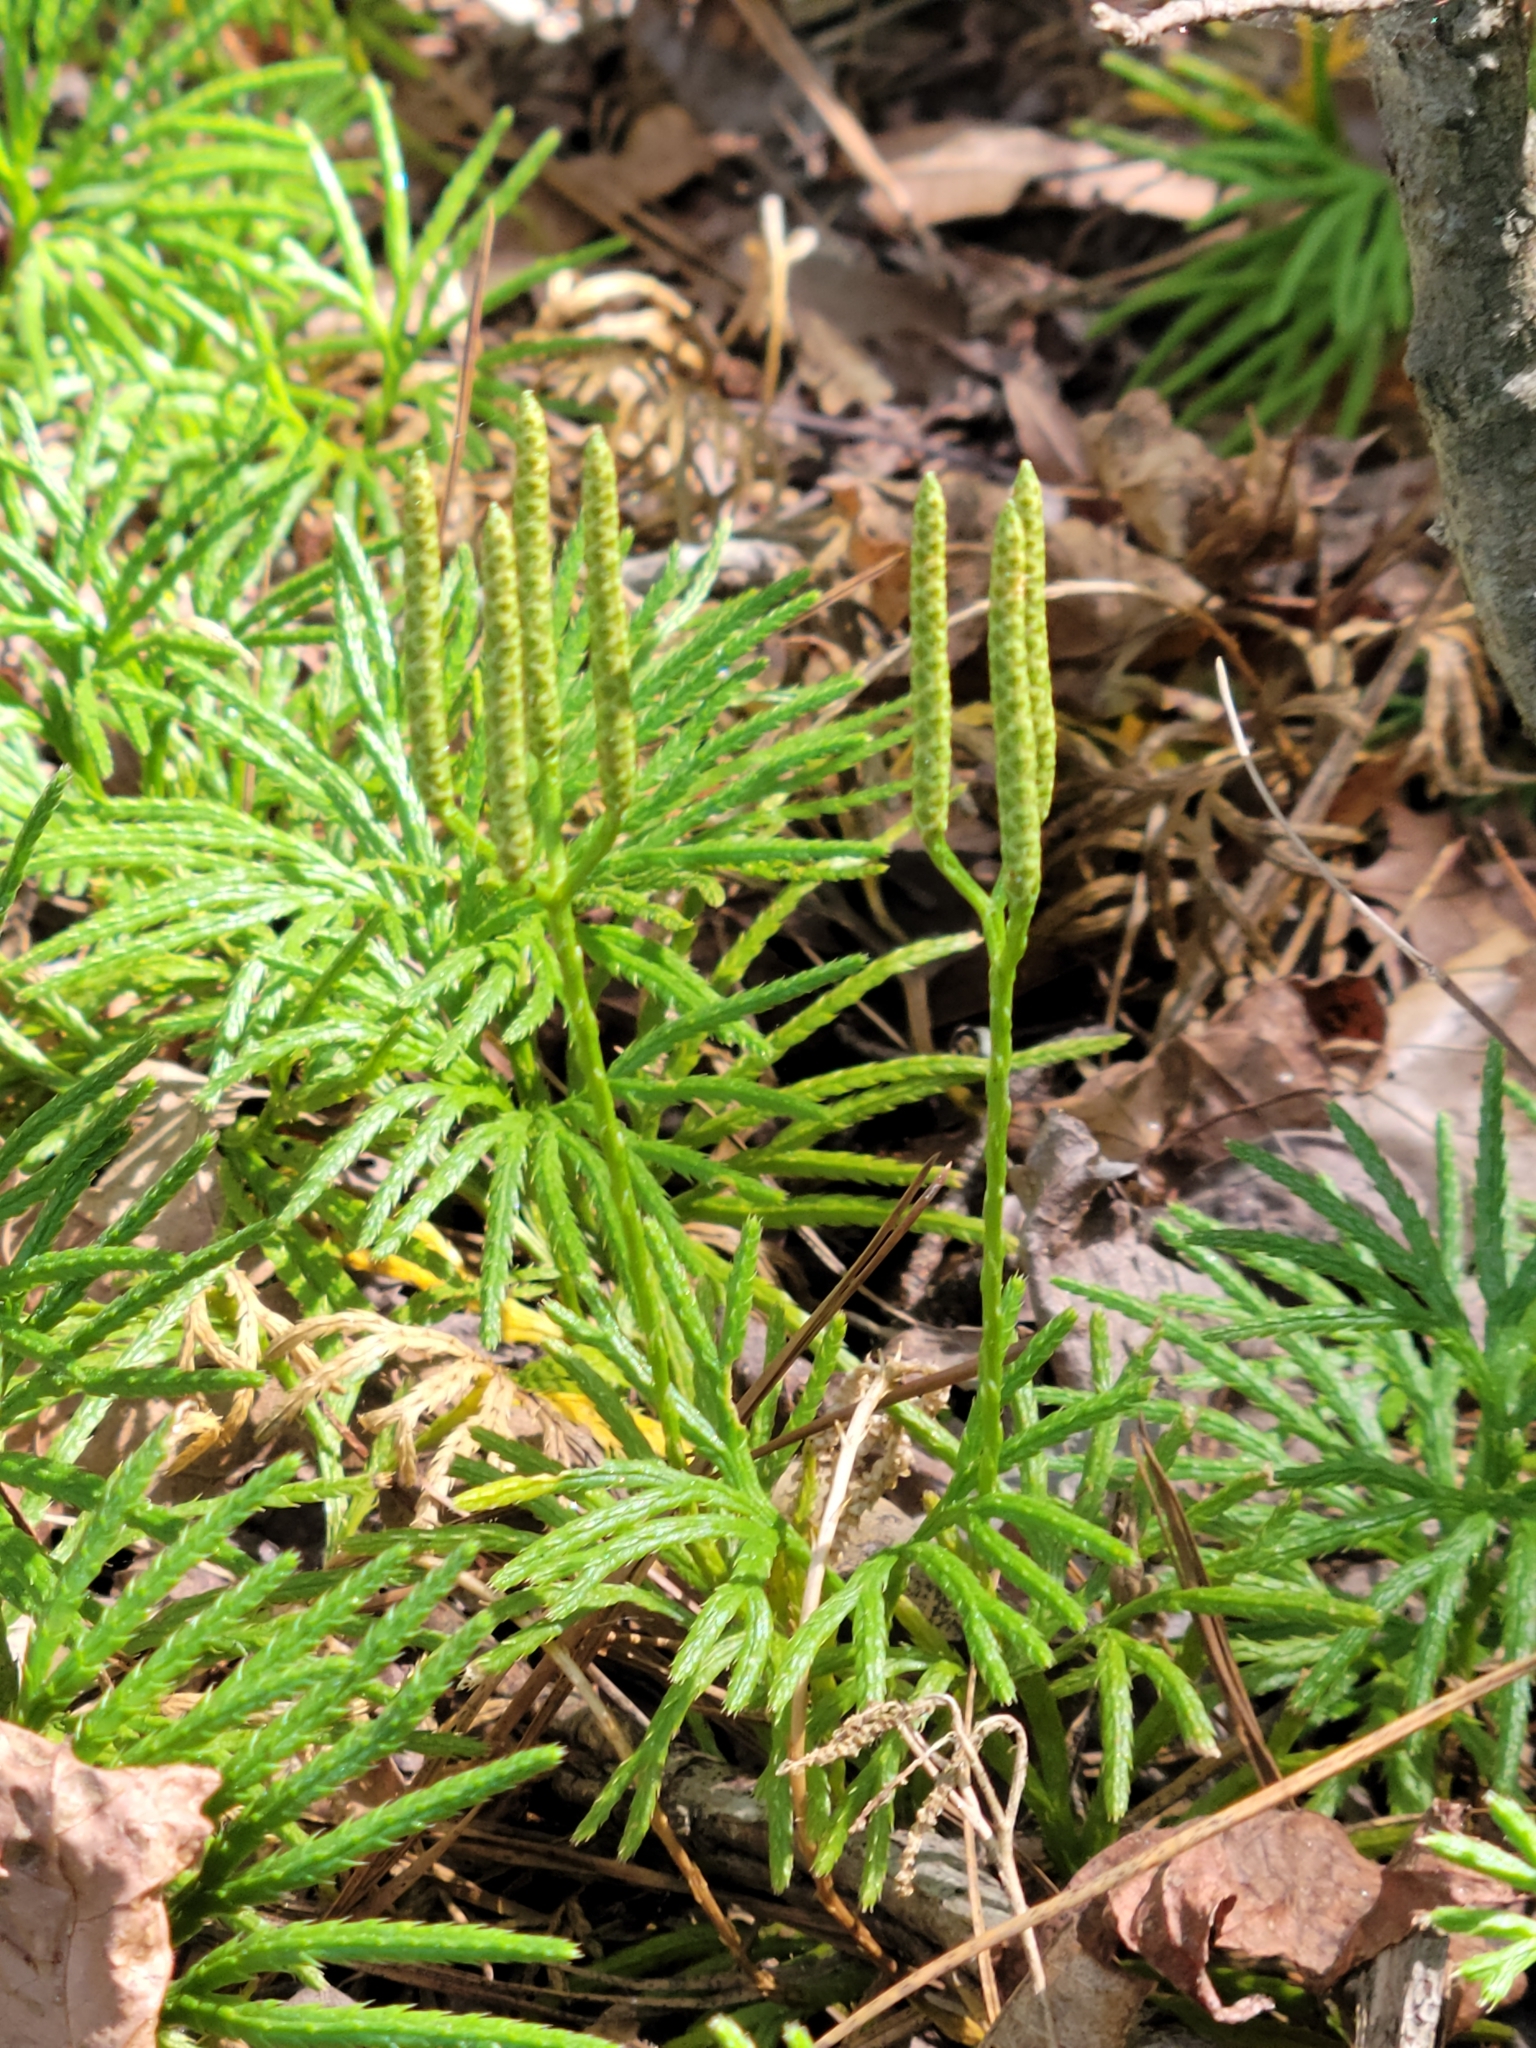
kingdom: Plantae
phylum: Tracheophyta
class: Lycopodiopsida
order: Lycopodiales
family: Lycopodiaceae
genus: Diphasiastrum
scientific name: Diphasiastrum digitatum
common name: Southern running-pine
